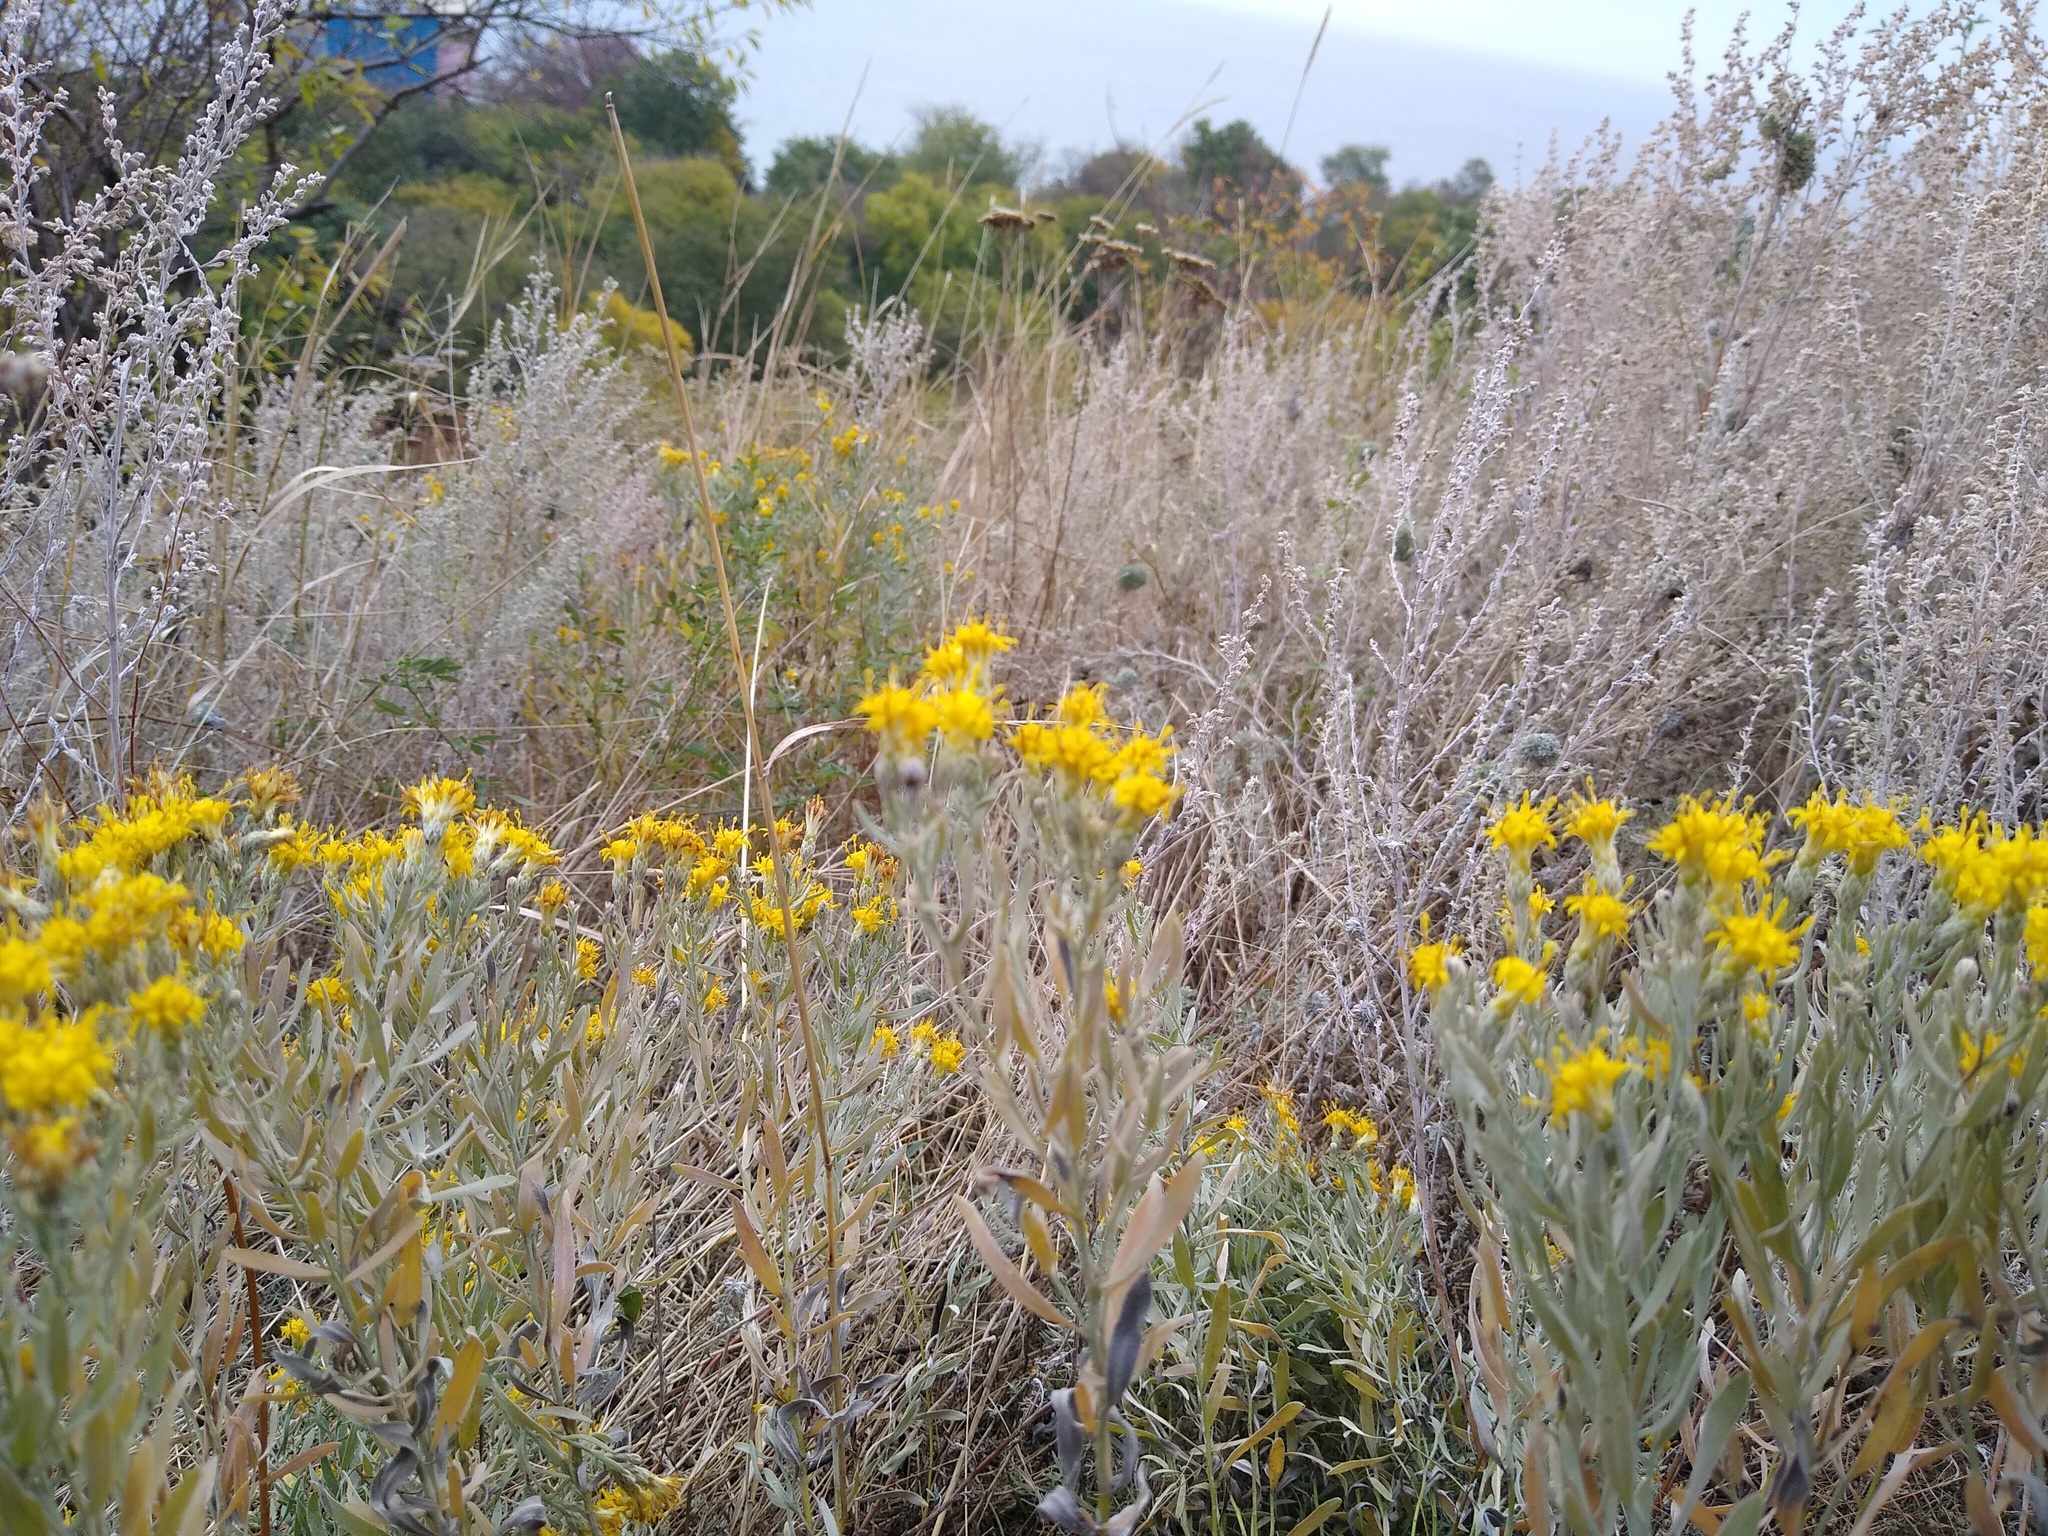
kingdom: Plantae
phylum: Tracheophyta
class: Magnoliopsida
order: Asterales
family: Asteraceae
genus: Galatella
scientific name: Galatella villosa
